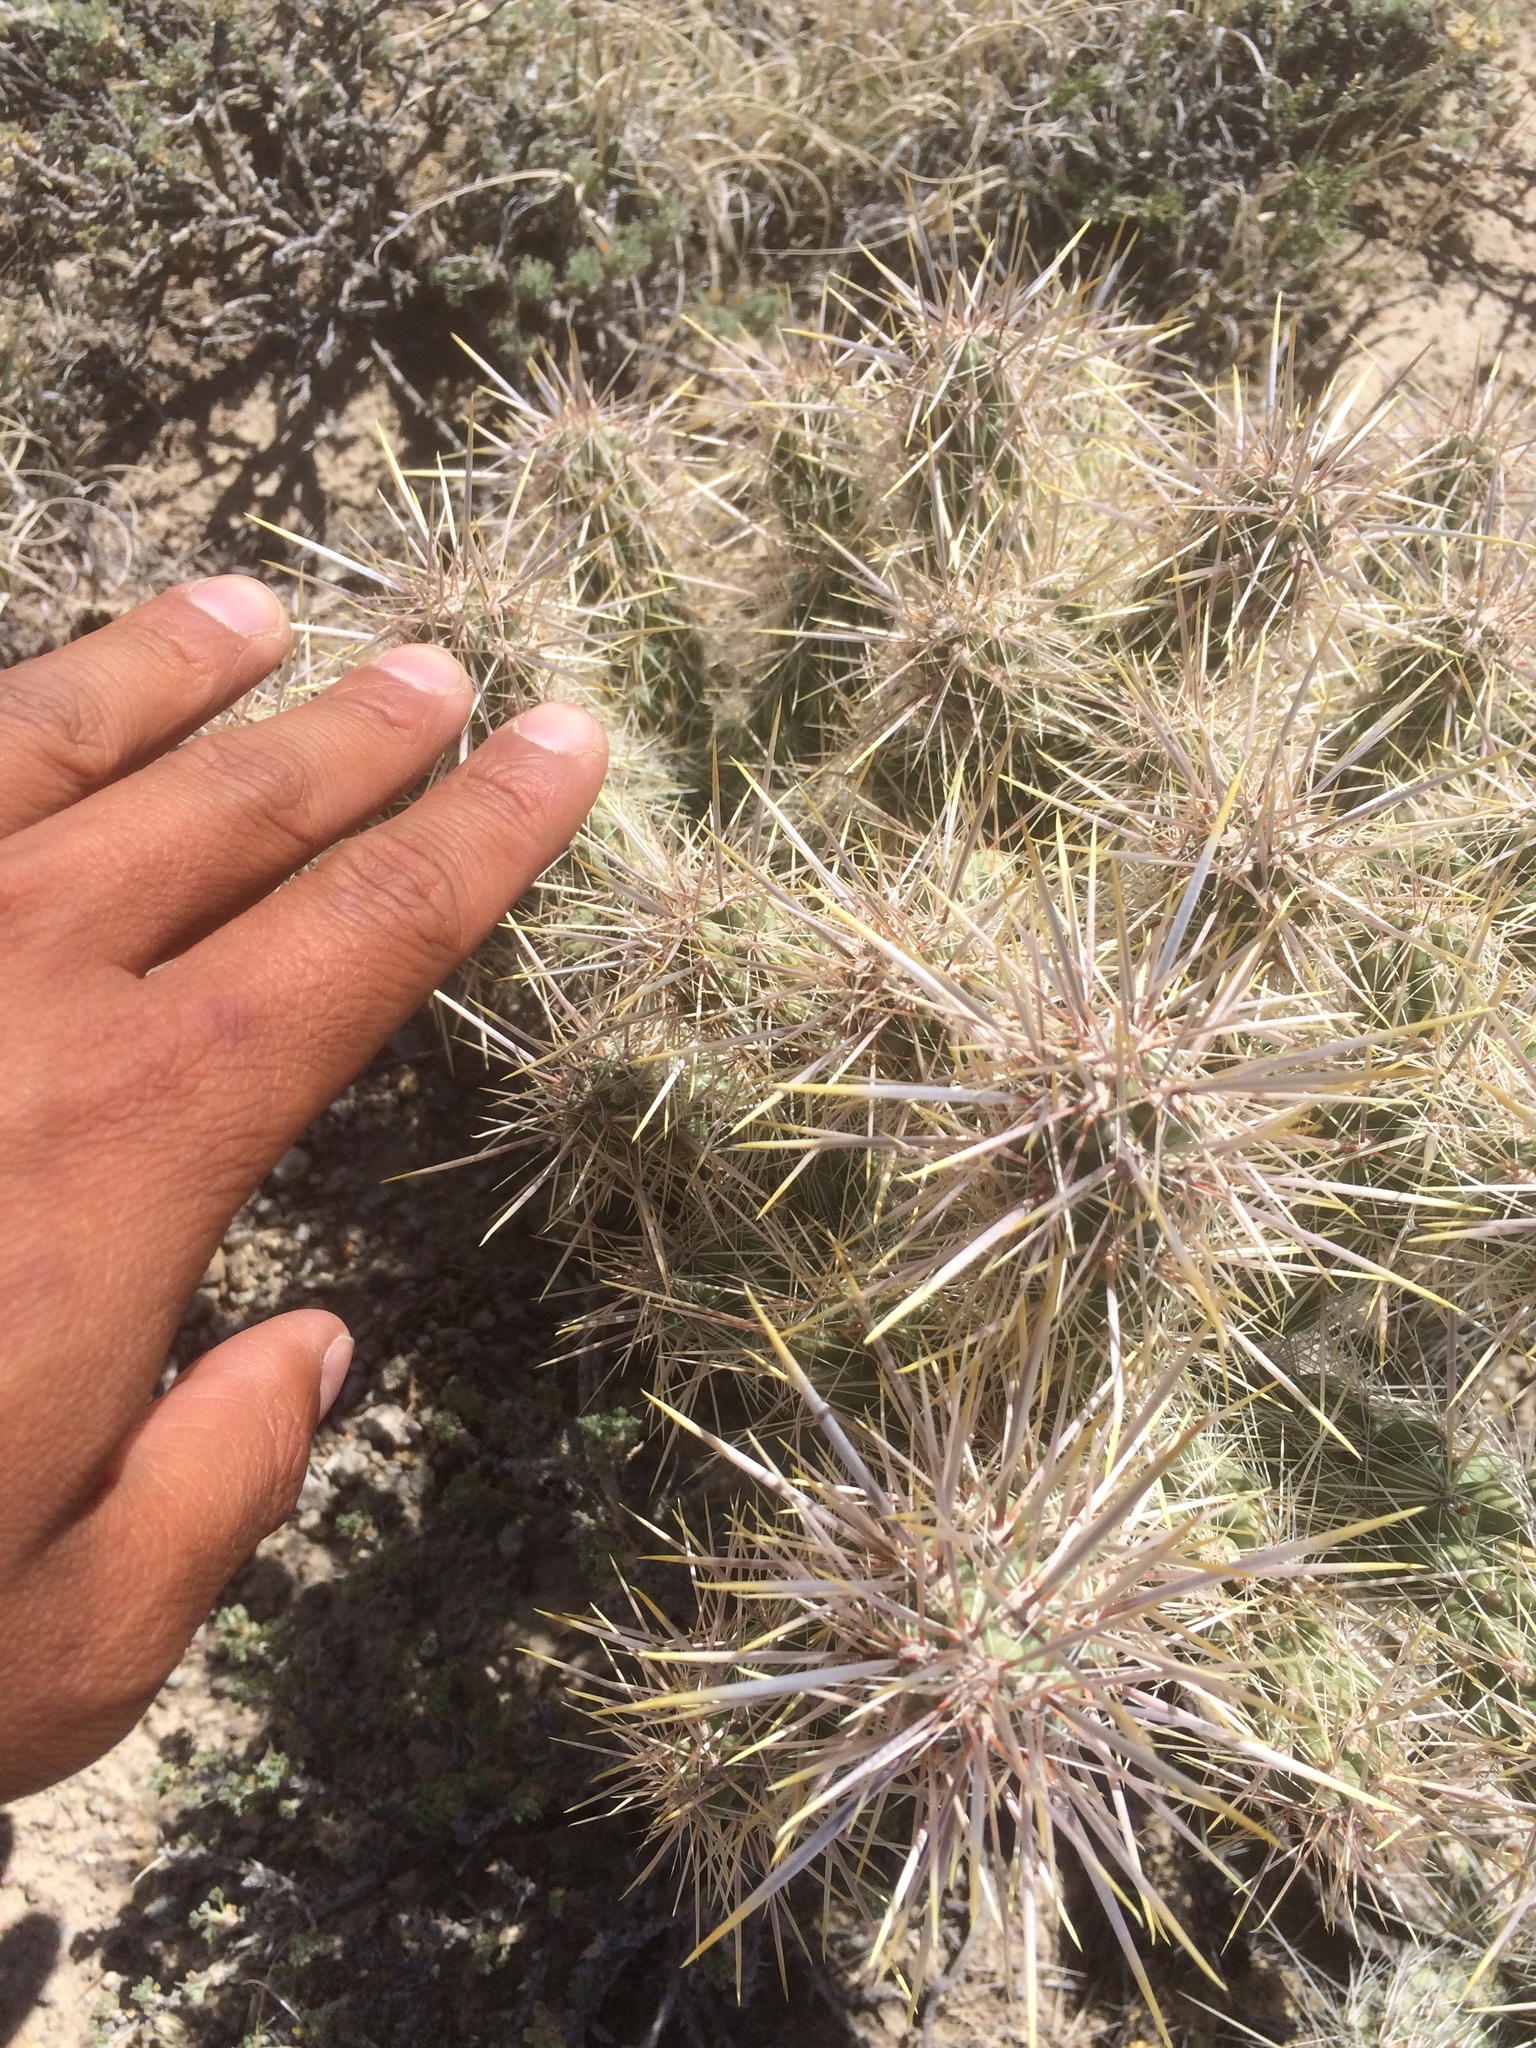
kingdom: Plantae
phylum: Tracheophyta
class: Magnoliopsida
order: Caryophyllales
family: Cactaceae
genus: Cylindropuntia
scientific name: Cylindropuntia echinocarpa
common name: Ground cholla
